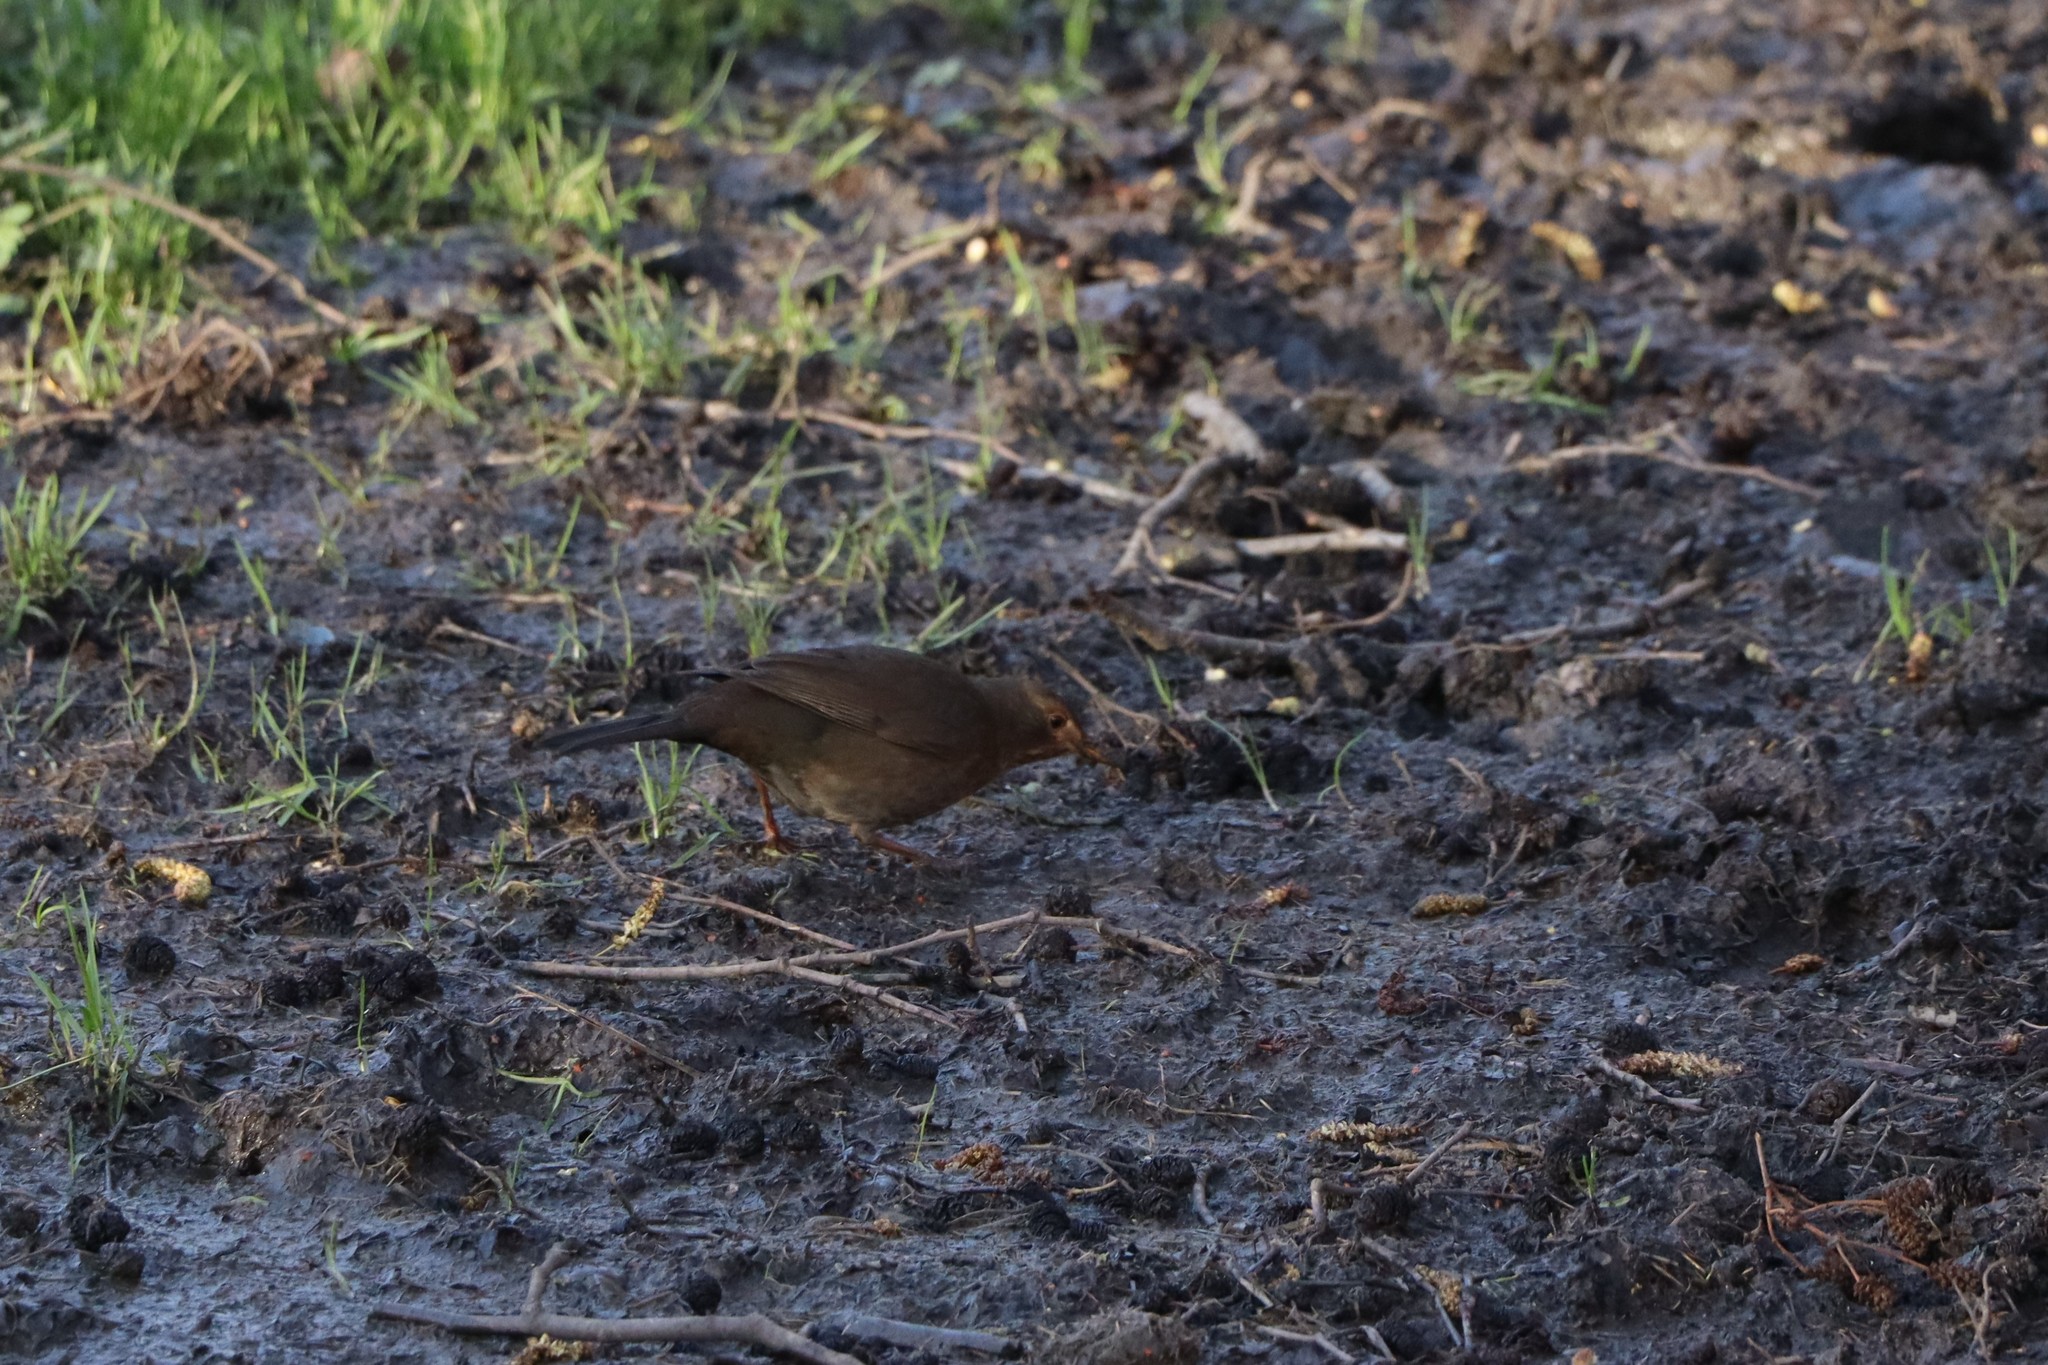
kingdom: Animalia
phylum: Chordata
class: Aves
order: Passeriformes
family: Turdidae
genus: Turdus
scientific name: Turdus merula
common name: Common blackbird
